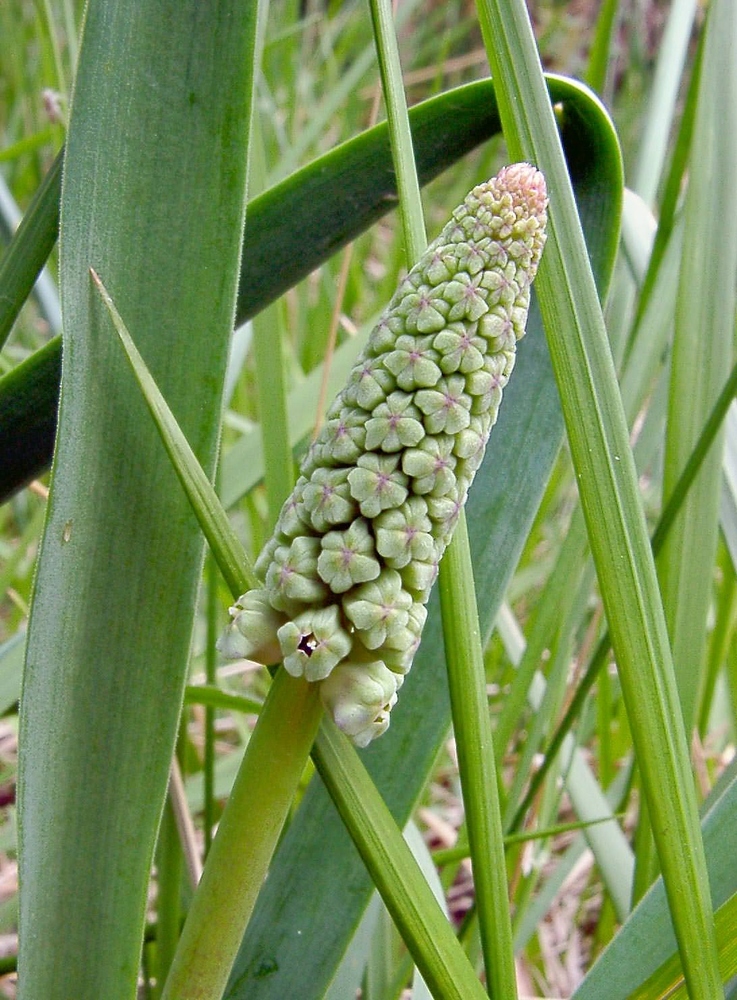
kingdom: Plantae
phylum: Tracheophyta
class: Liliopsida
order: Asparagales
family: Asparagaceae
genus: Muscari
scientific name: Muscari comosum
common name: Tassel hyacinth
